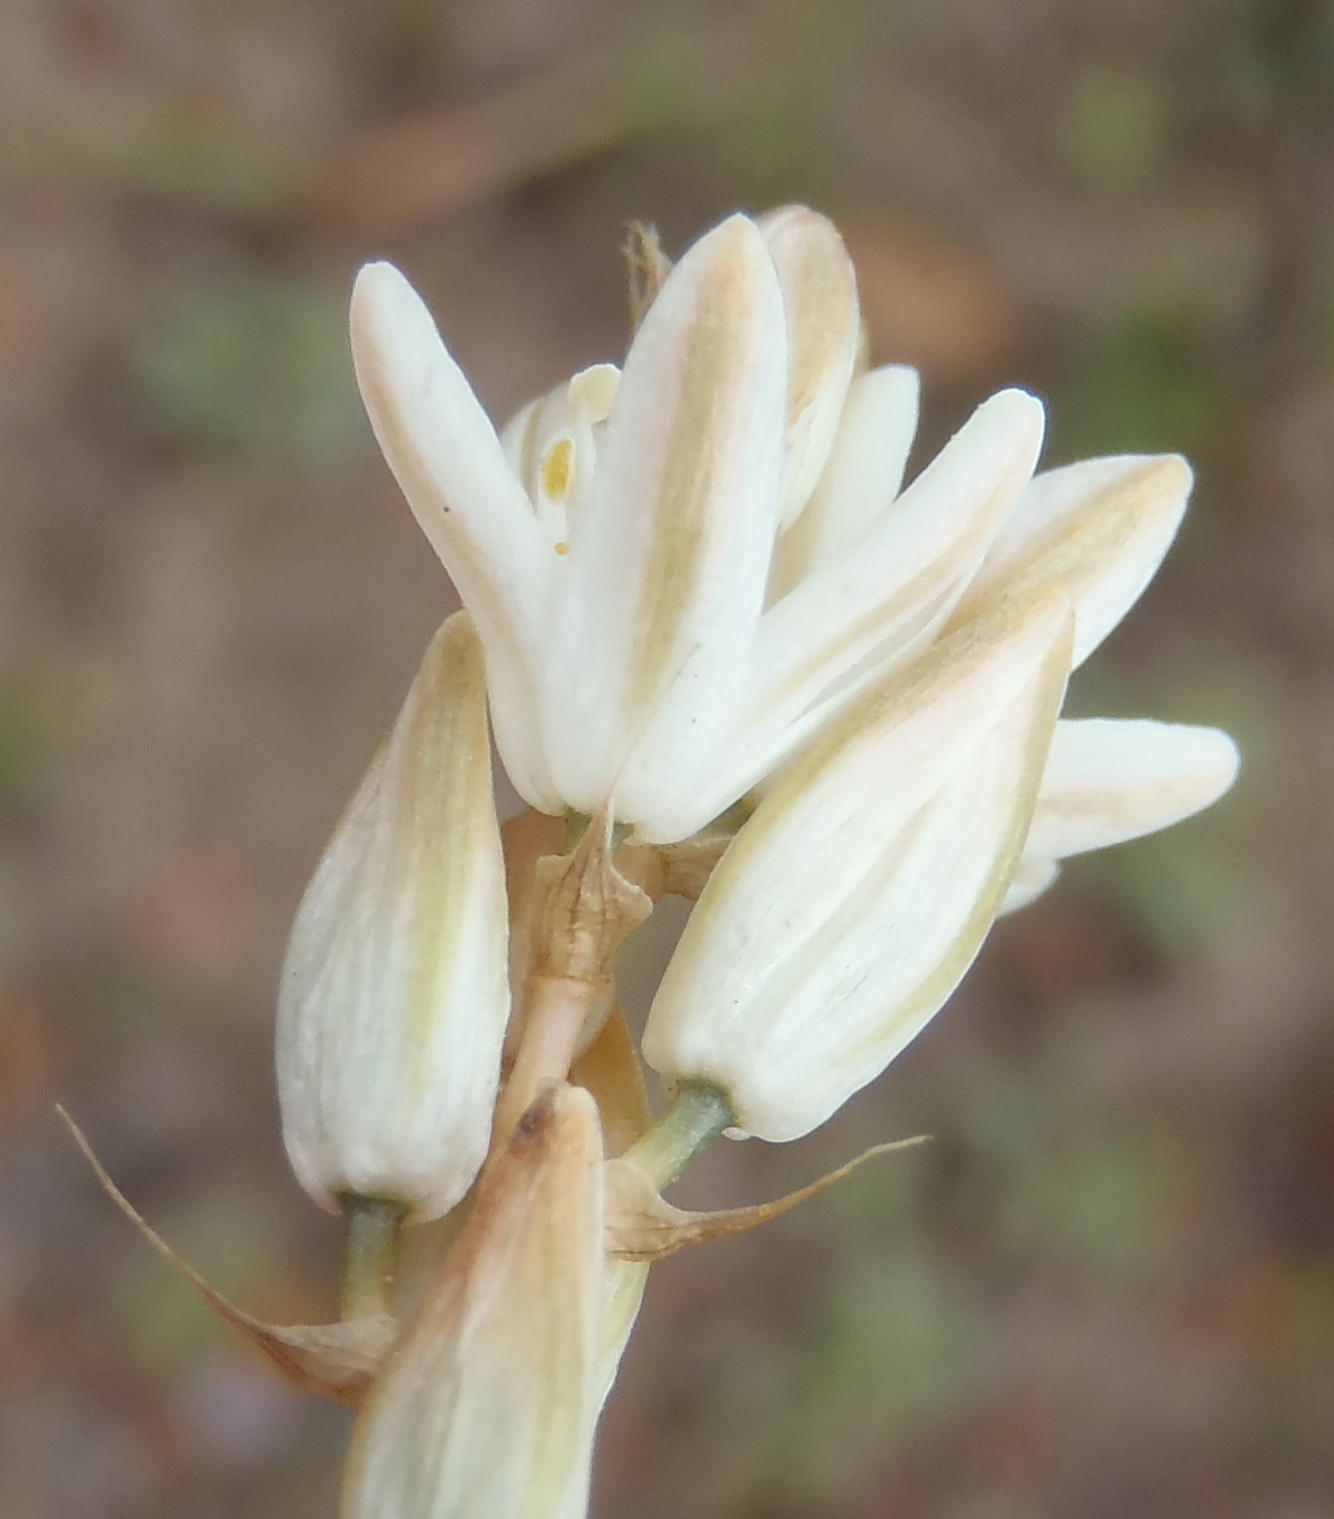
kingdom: Plantae
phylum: Tracheophyta
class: Liliopsida
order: Asparagales
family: Asparagaceae
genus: Ornithogalum
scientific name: Ornithogalum graminifolium
